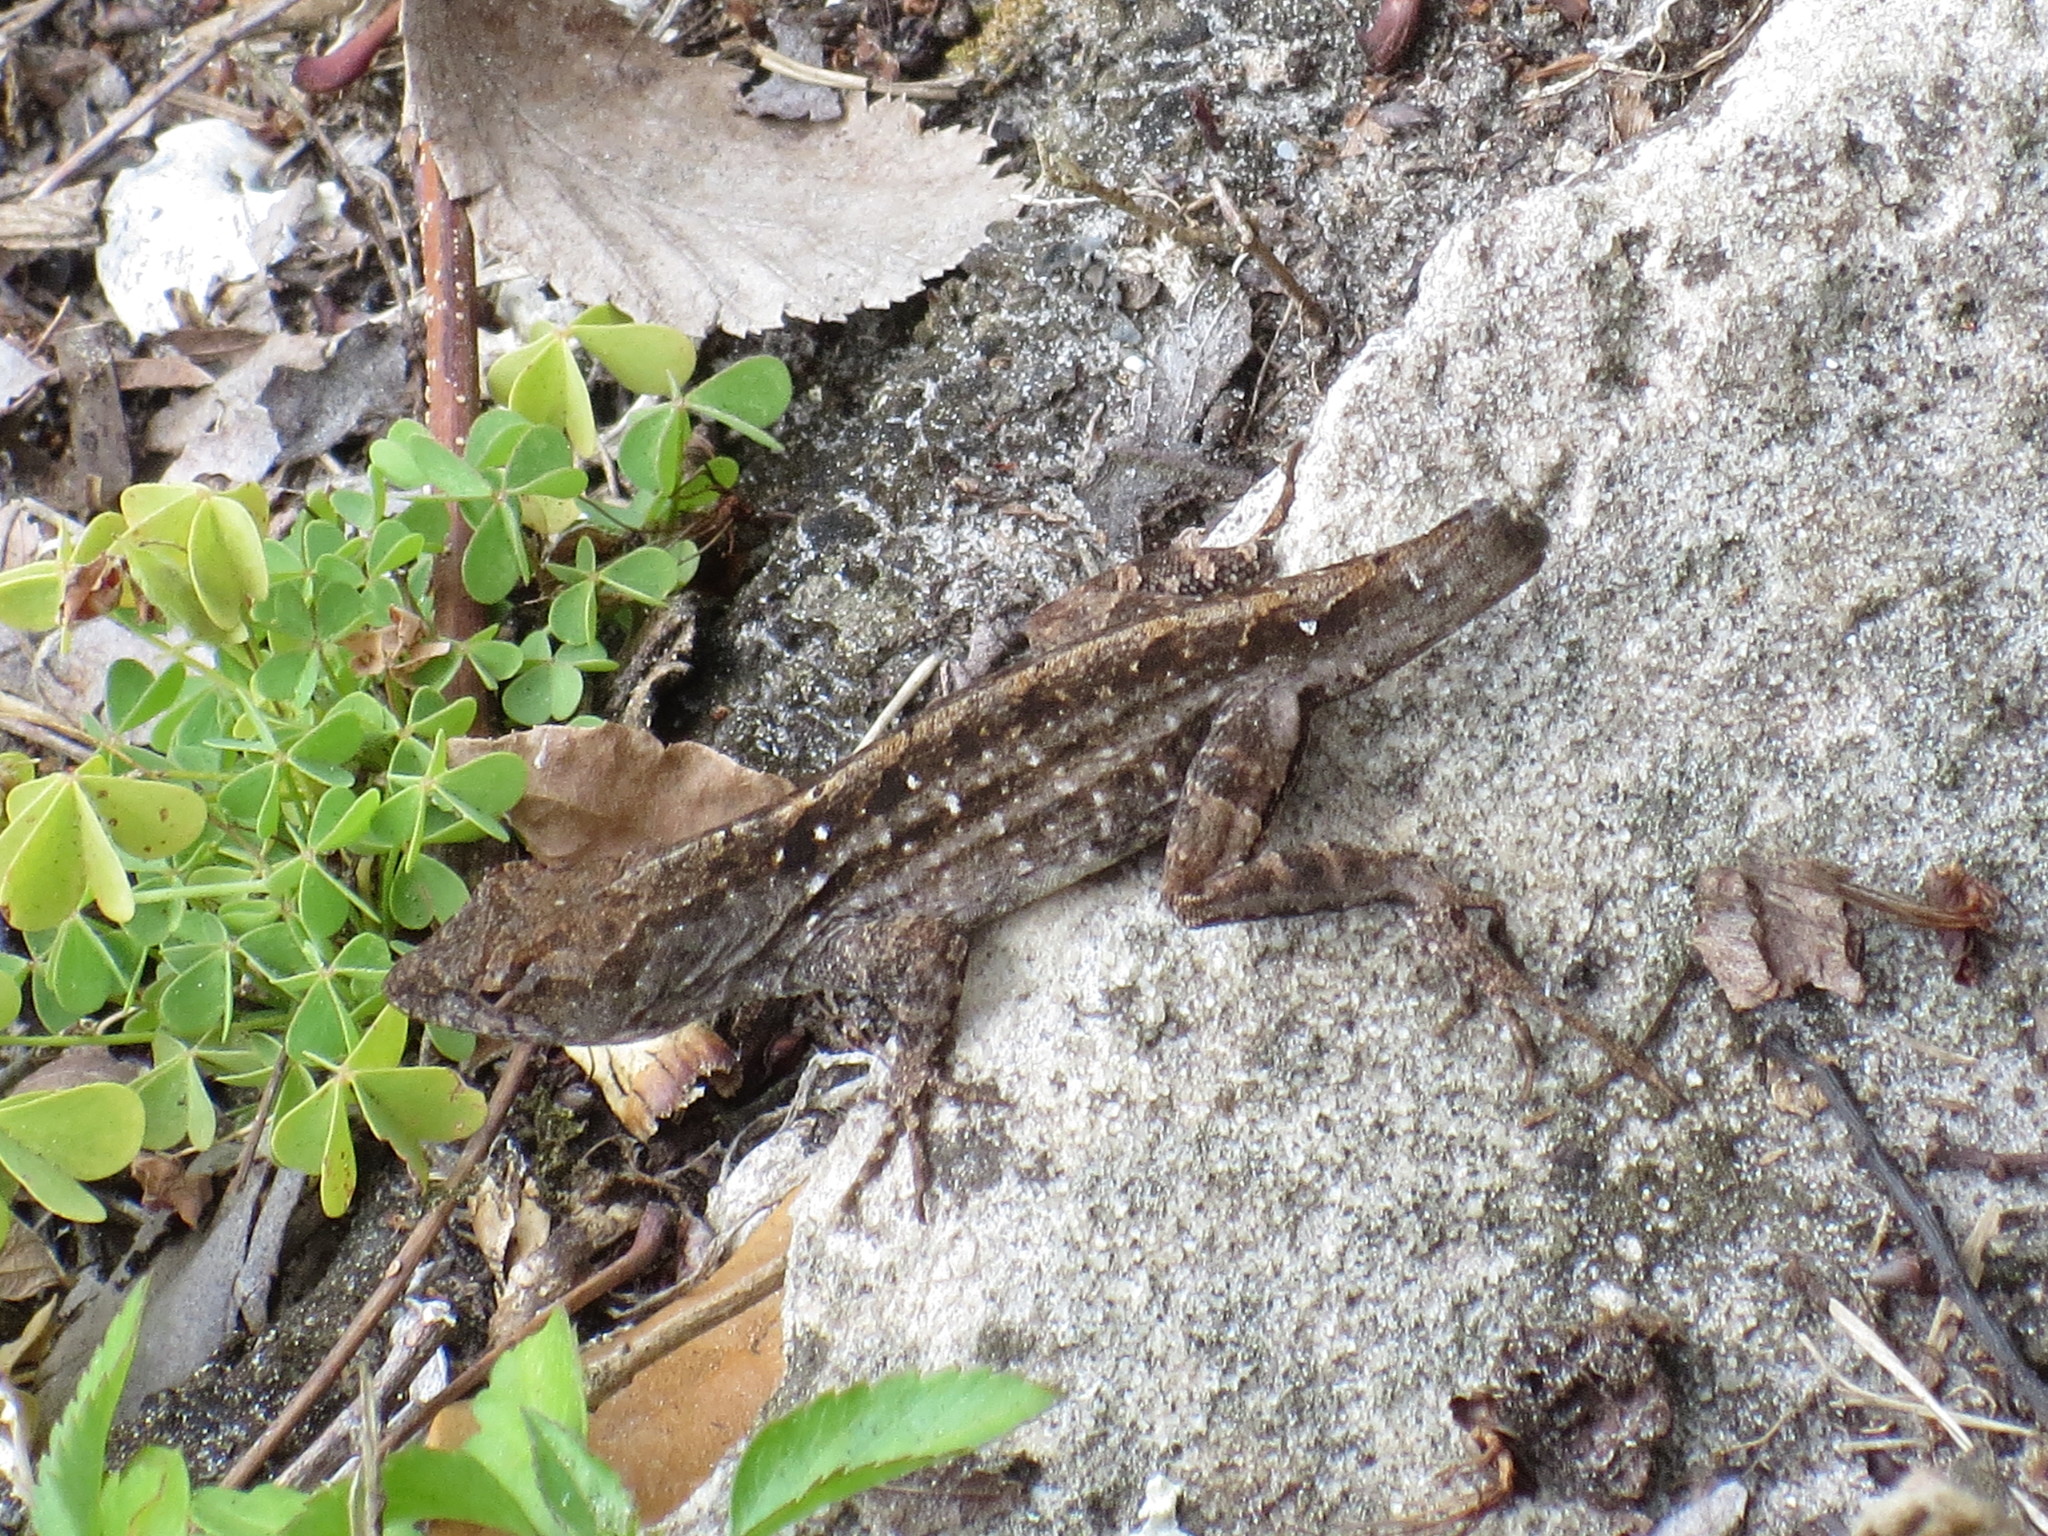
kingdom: Animalia
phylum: Chordata
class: Squamata
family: Dactyloidae
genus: Anolis
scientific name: Anolis sagrei
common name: Brown anole
